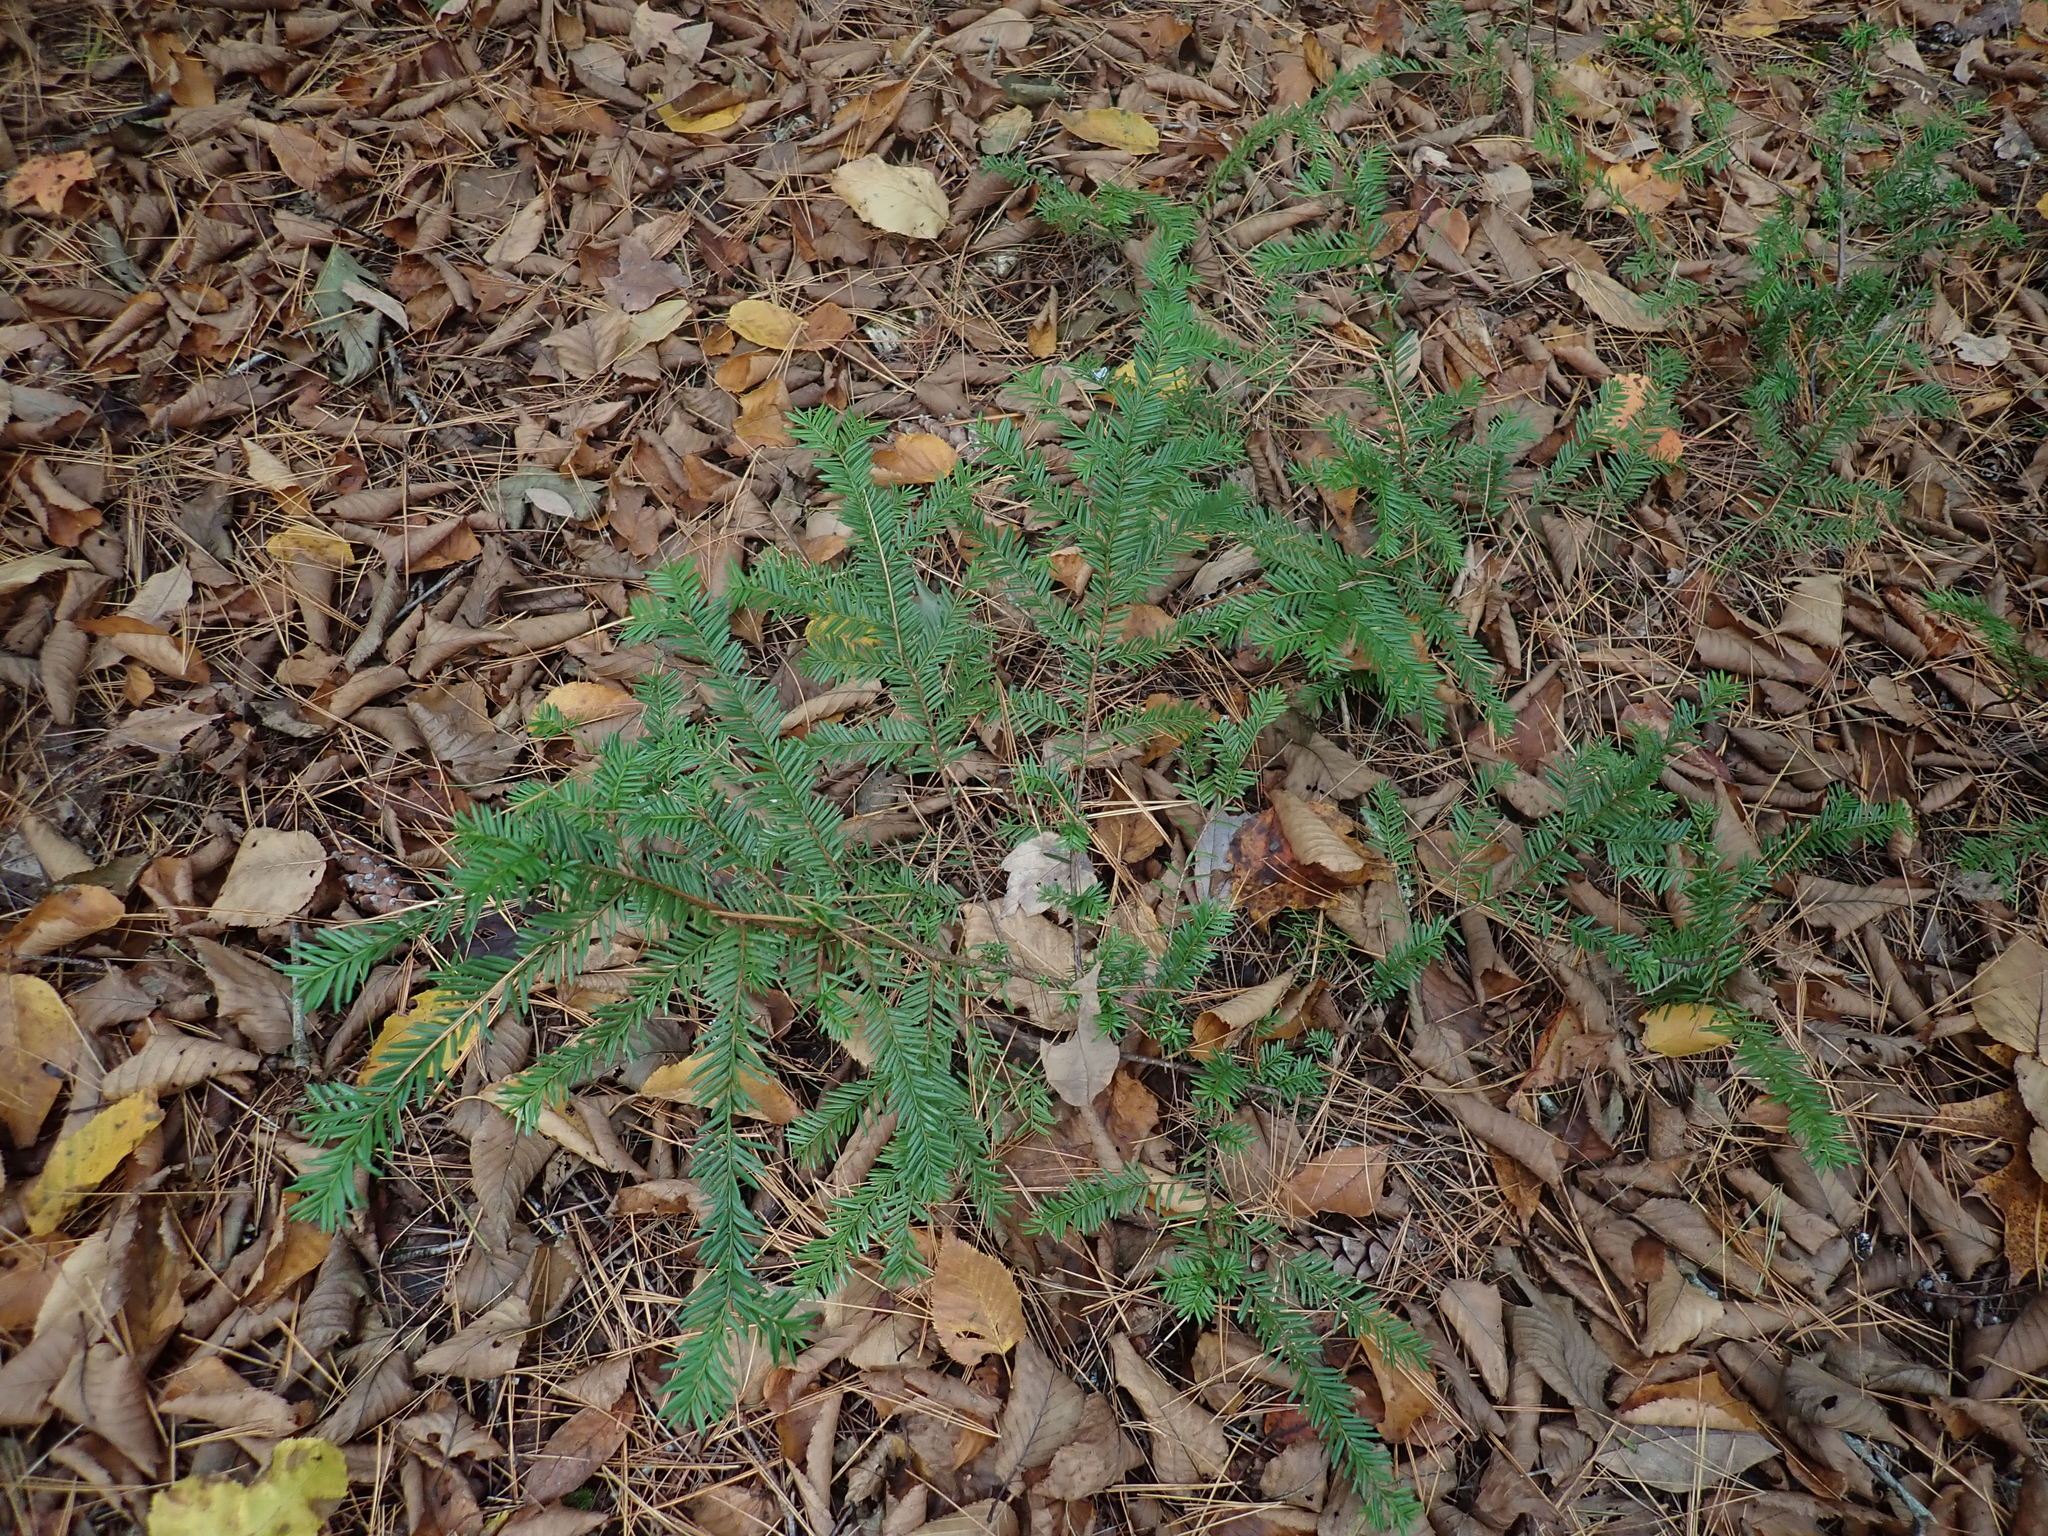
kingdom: Plantae
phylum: Tracheophyta
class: Pinopsida
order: Pinales
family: Taxaceae
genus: Taxus
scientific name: Taxus canadensis
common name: American yew
